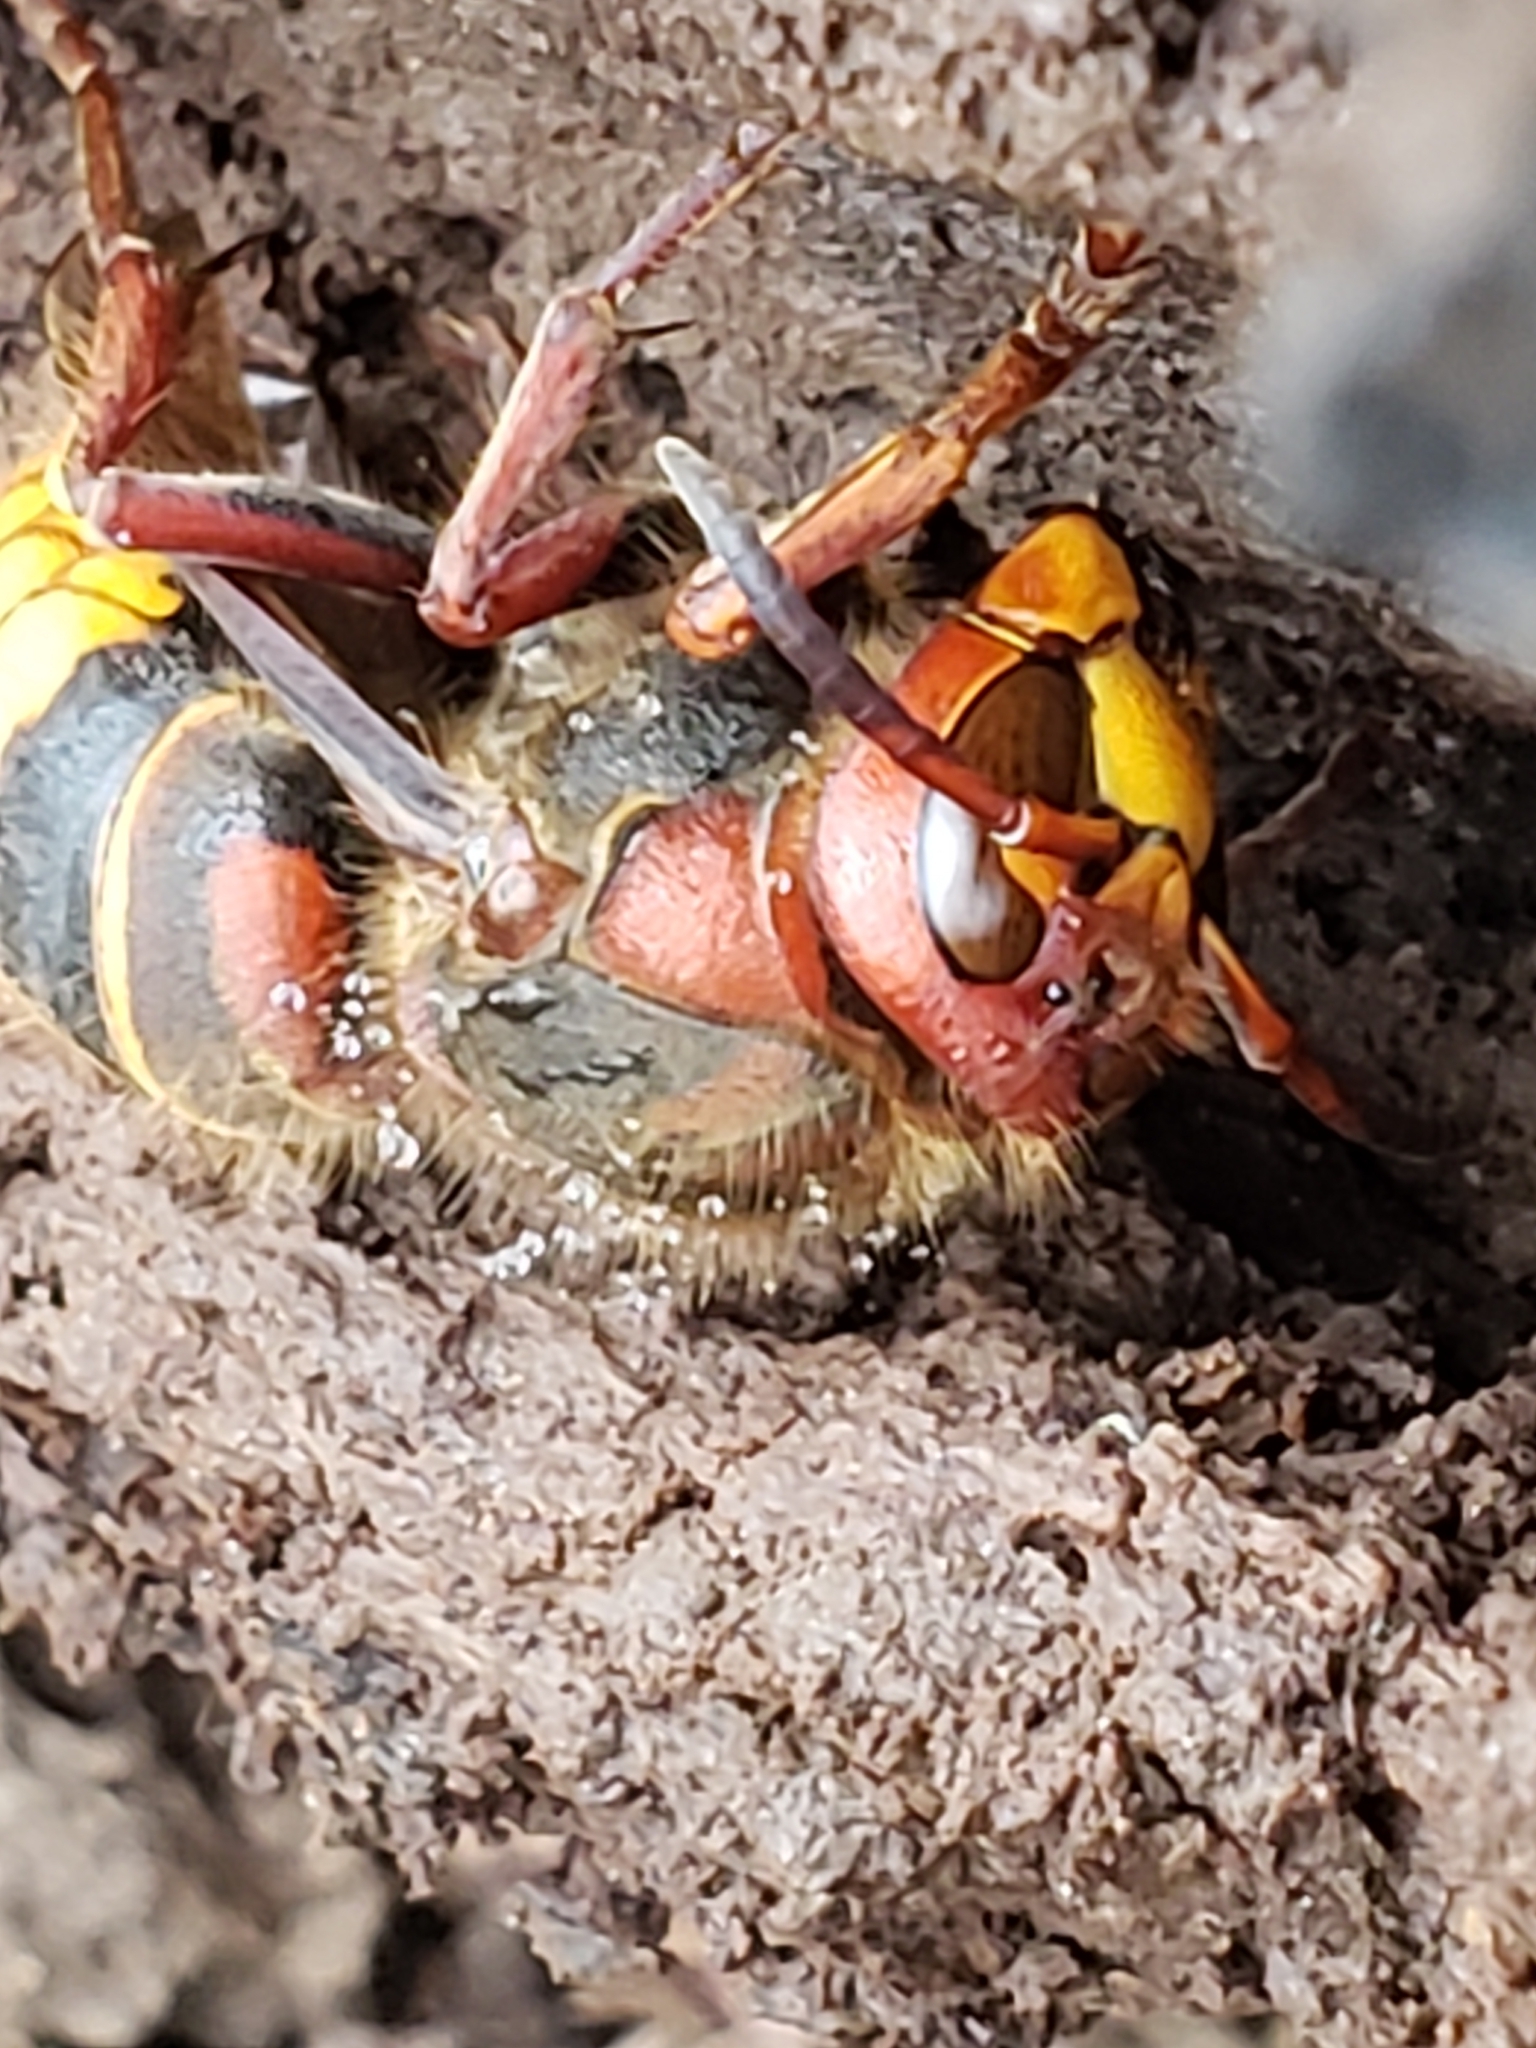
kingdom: Animalia
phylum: Arthropoda
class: Insecta
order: Hymenoptera
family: Vespidae
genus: Vespa
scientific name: Vespa crabro
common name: Hornet
